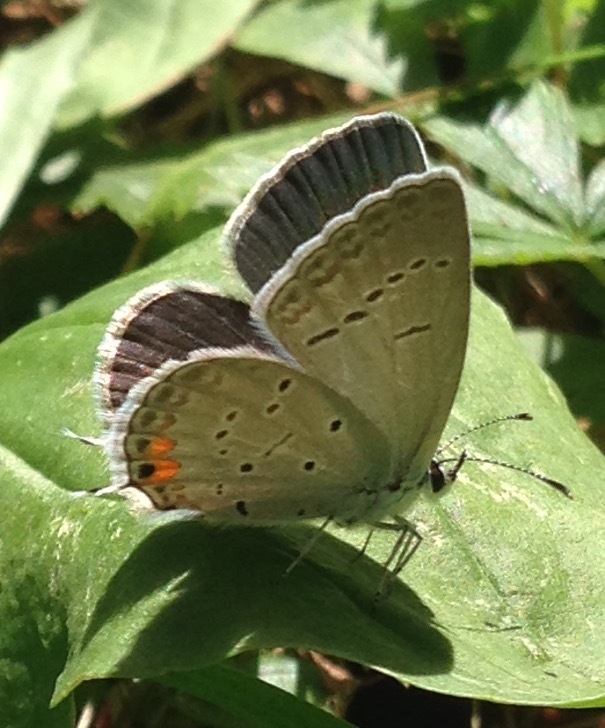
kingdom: Animalia
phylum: Arthropoda
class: Insecta
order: Lepidoptera
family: Lycaenidae
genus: Elkalyce
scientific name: Elkalyce comyntas
